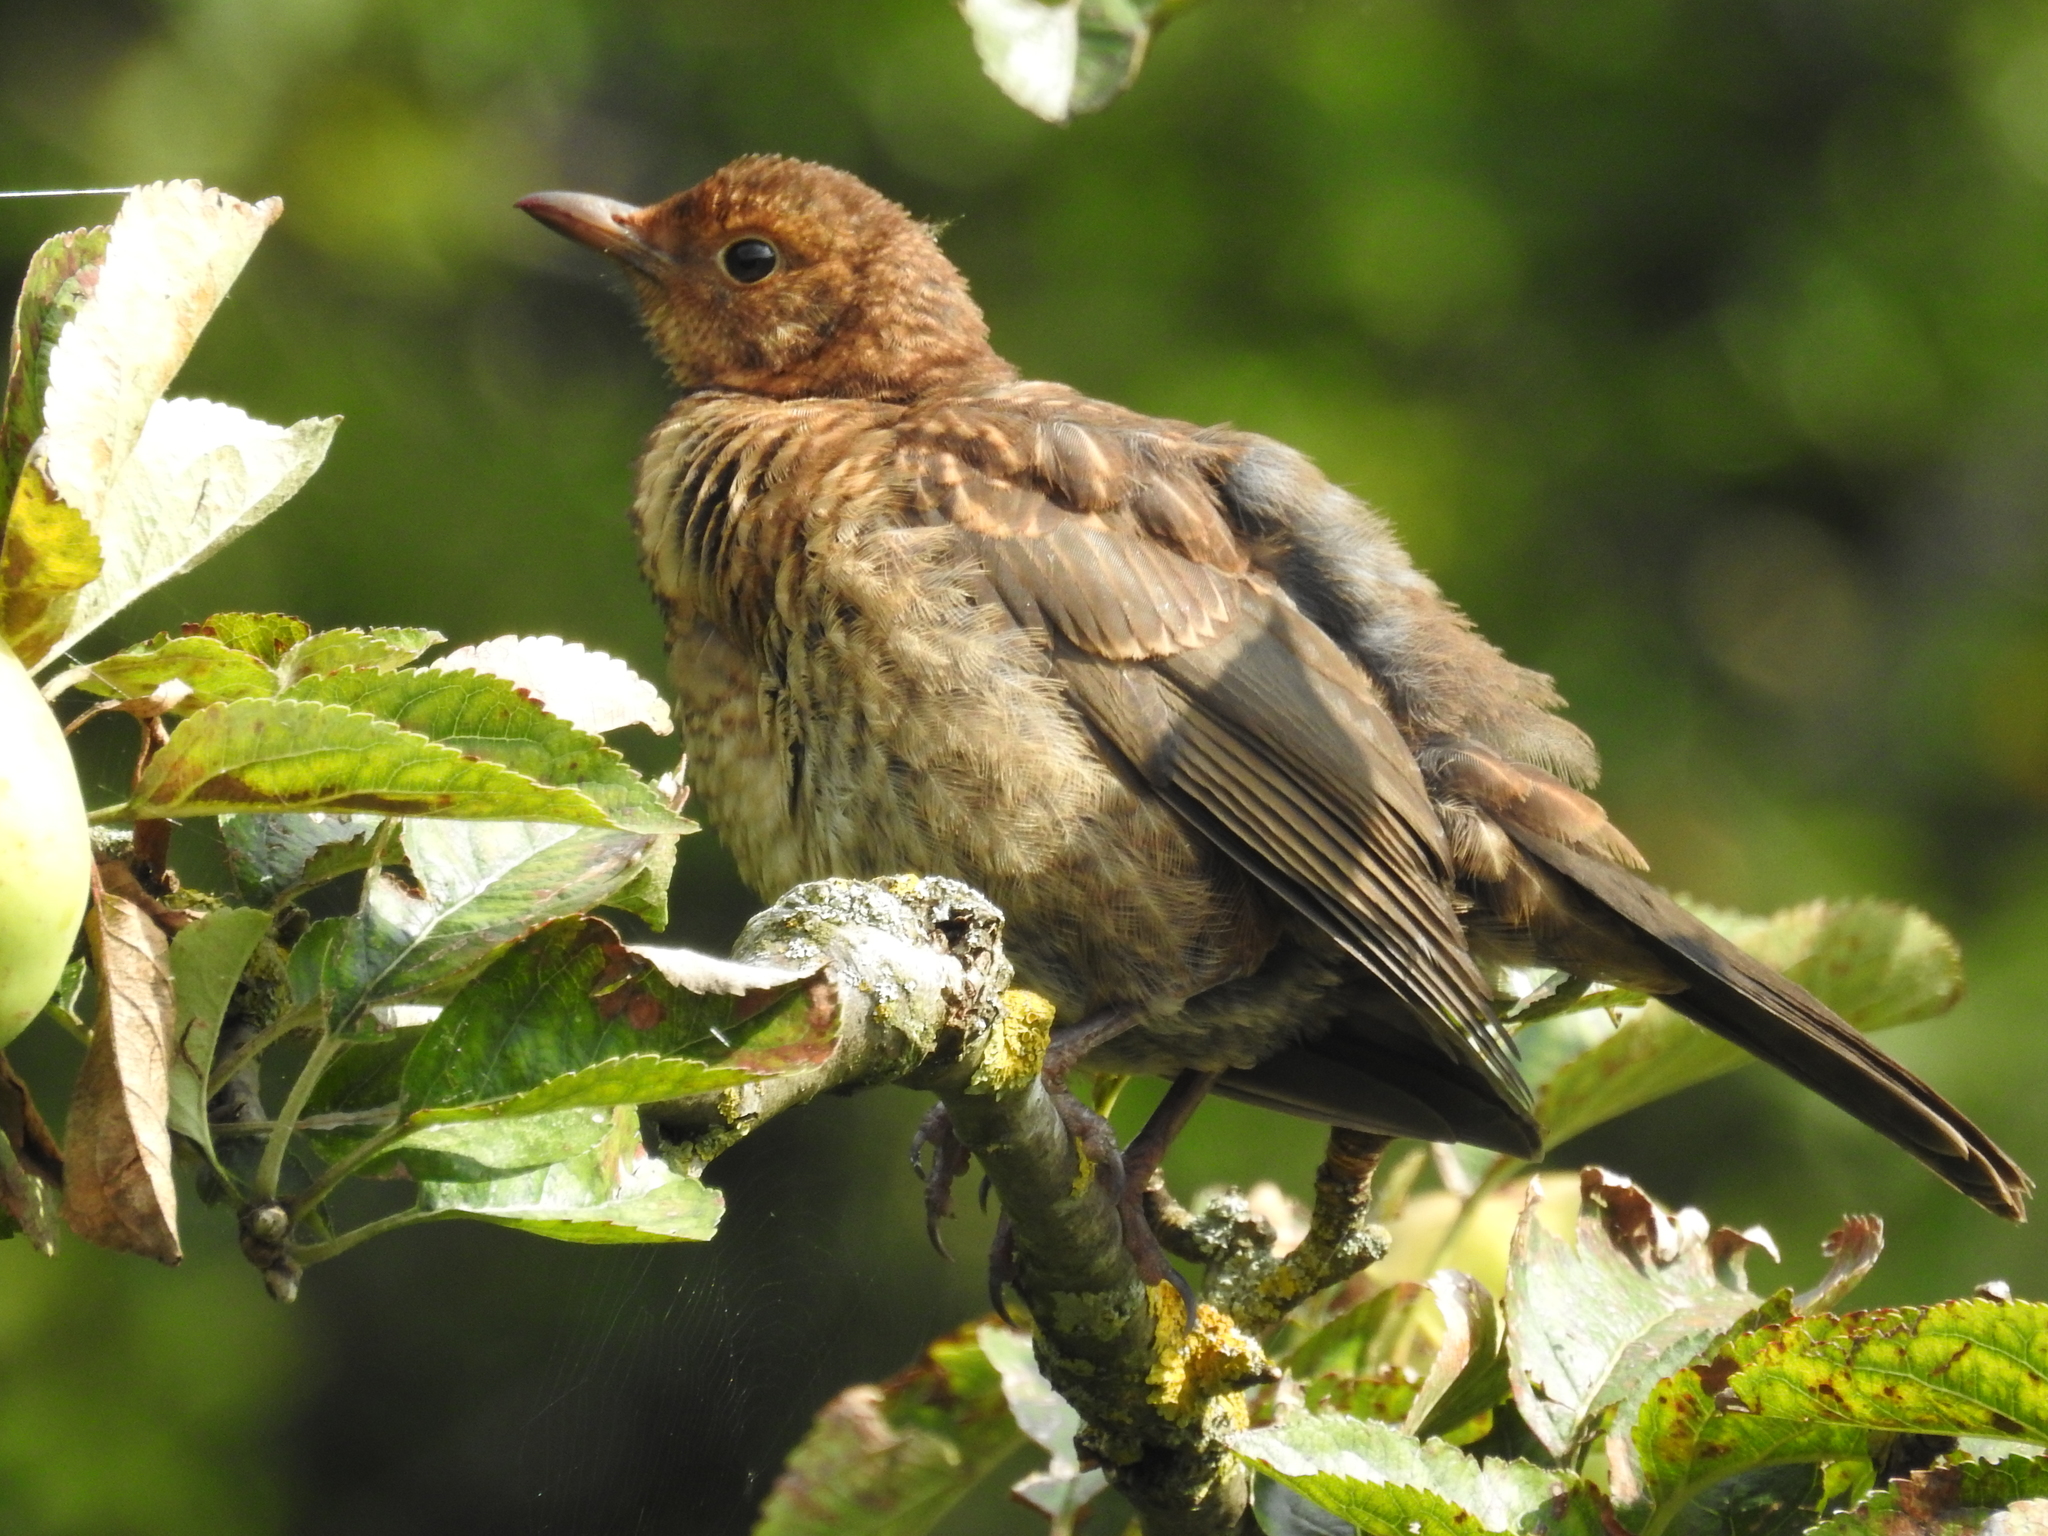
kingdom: Animalia
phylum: Chordata
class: Aves
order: Passeriformes
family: Turdidae
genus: Turdus
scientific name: Turdus merula
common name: Common blackbird
